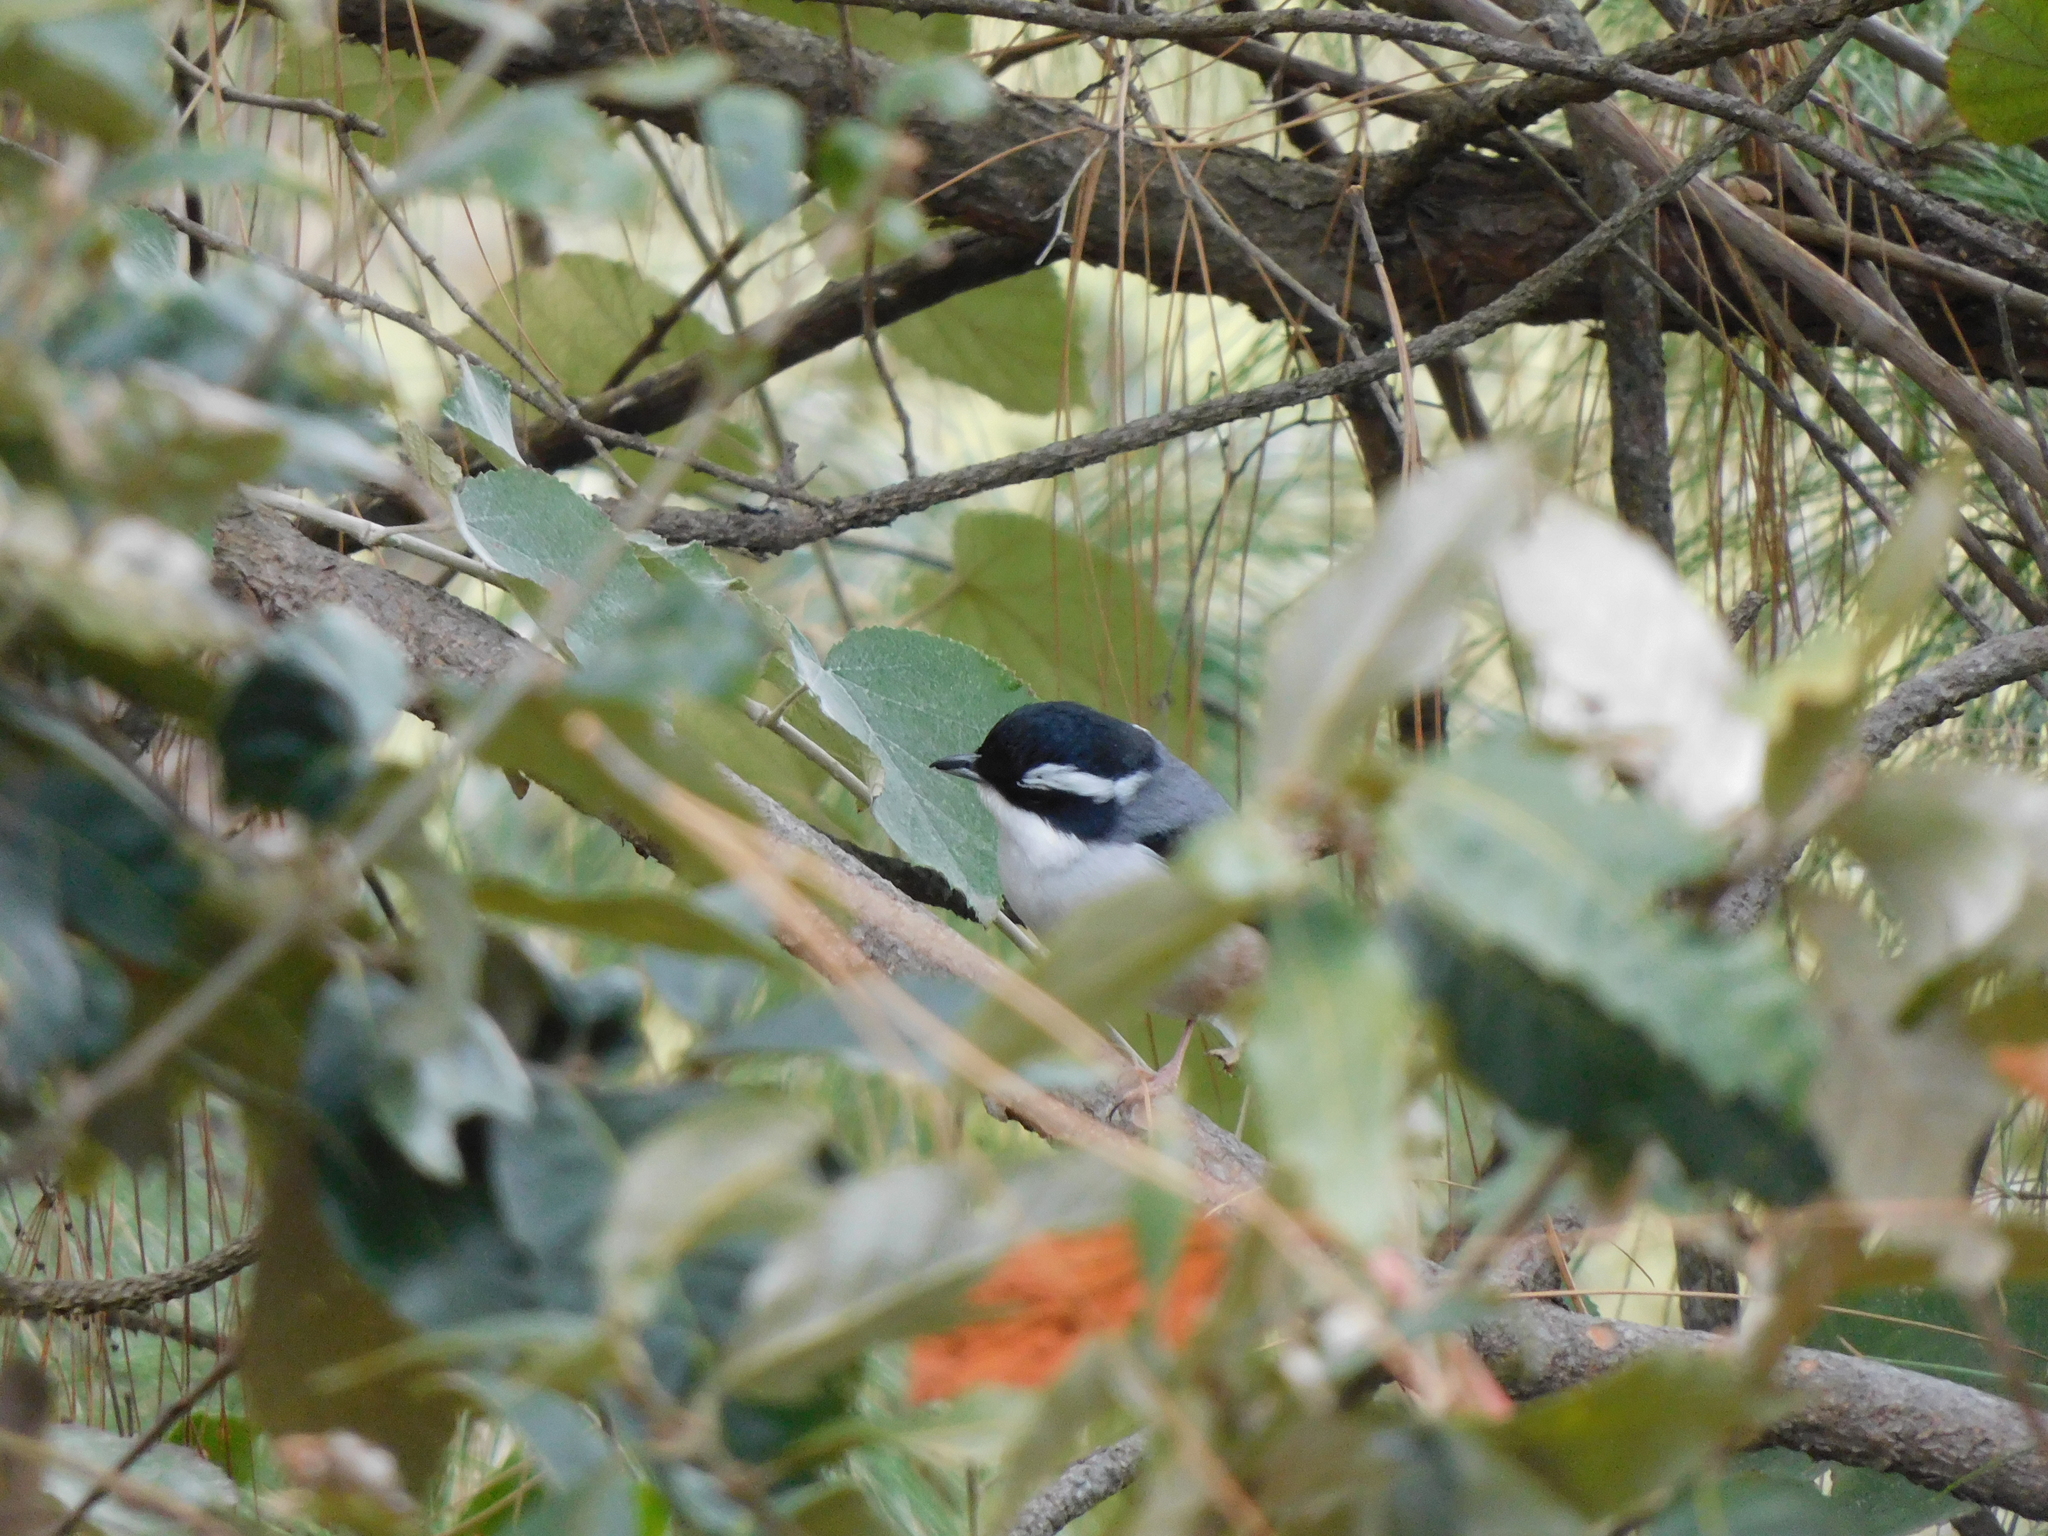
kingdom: Animalia
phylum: Chordata
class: Aves
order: Passeriformes
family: Vireonidae
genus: Pteruthius
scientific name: Pteruthius aeralatus
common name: Blyth's shrike-babbler
